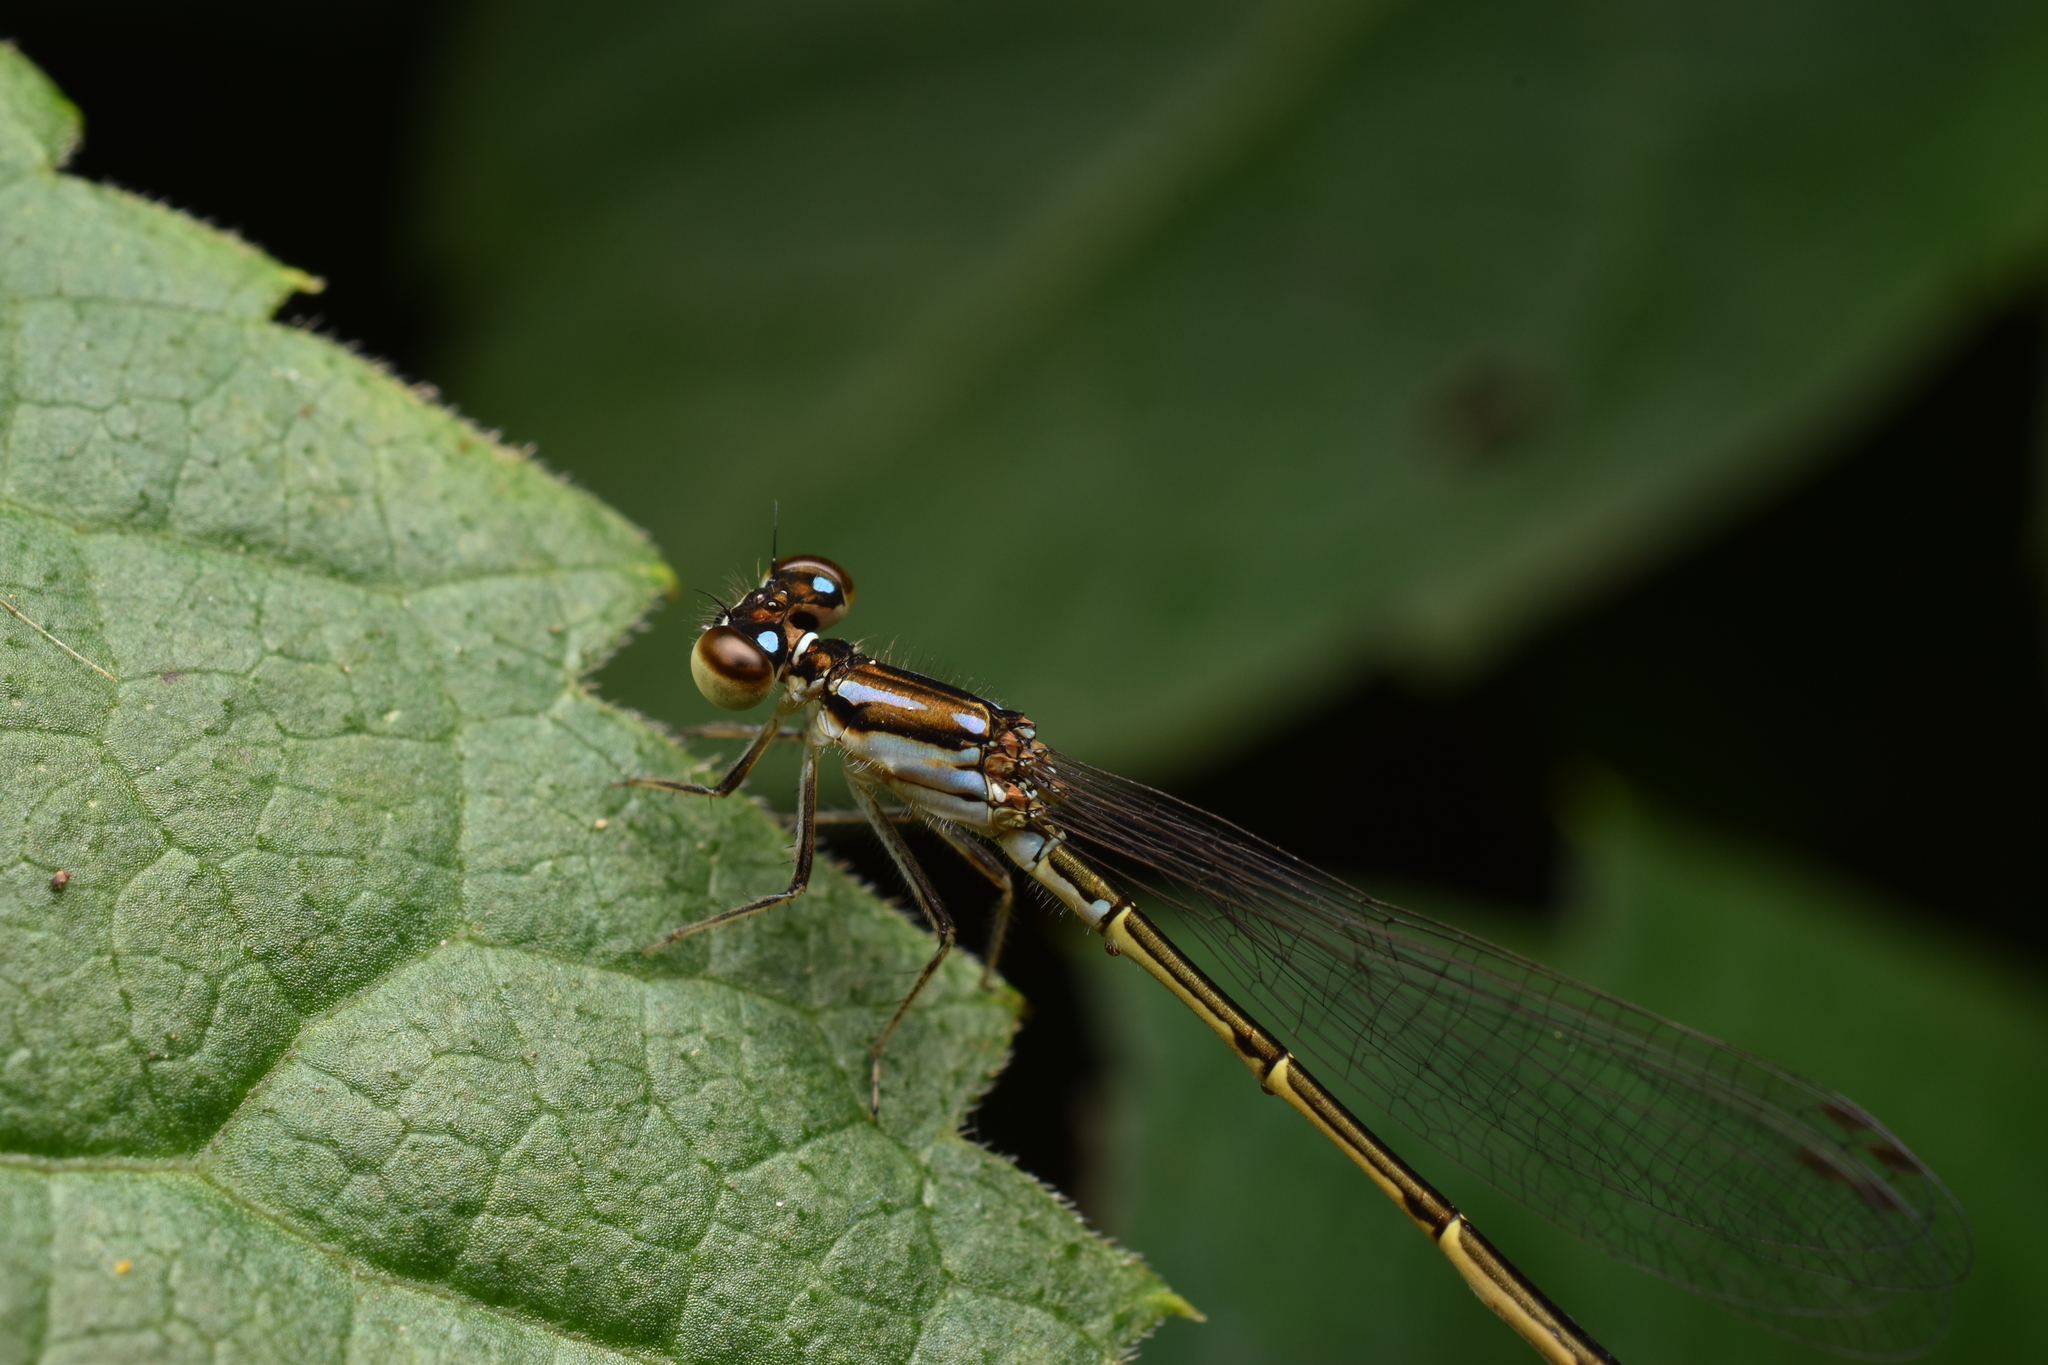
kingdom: Animalia
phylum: Arthropoda
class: Insecta
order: Odonata
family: Coenagrionidae
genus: Ischnura
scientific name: Ischnura posita
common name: Fragile forktail
